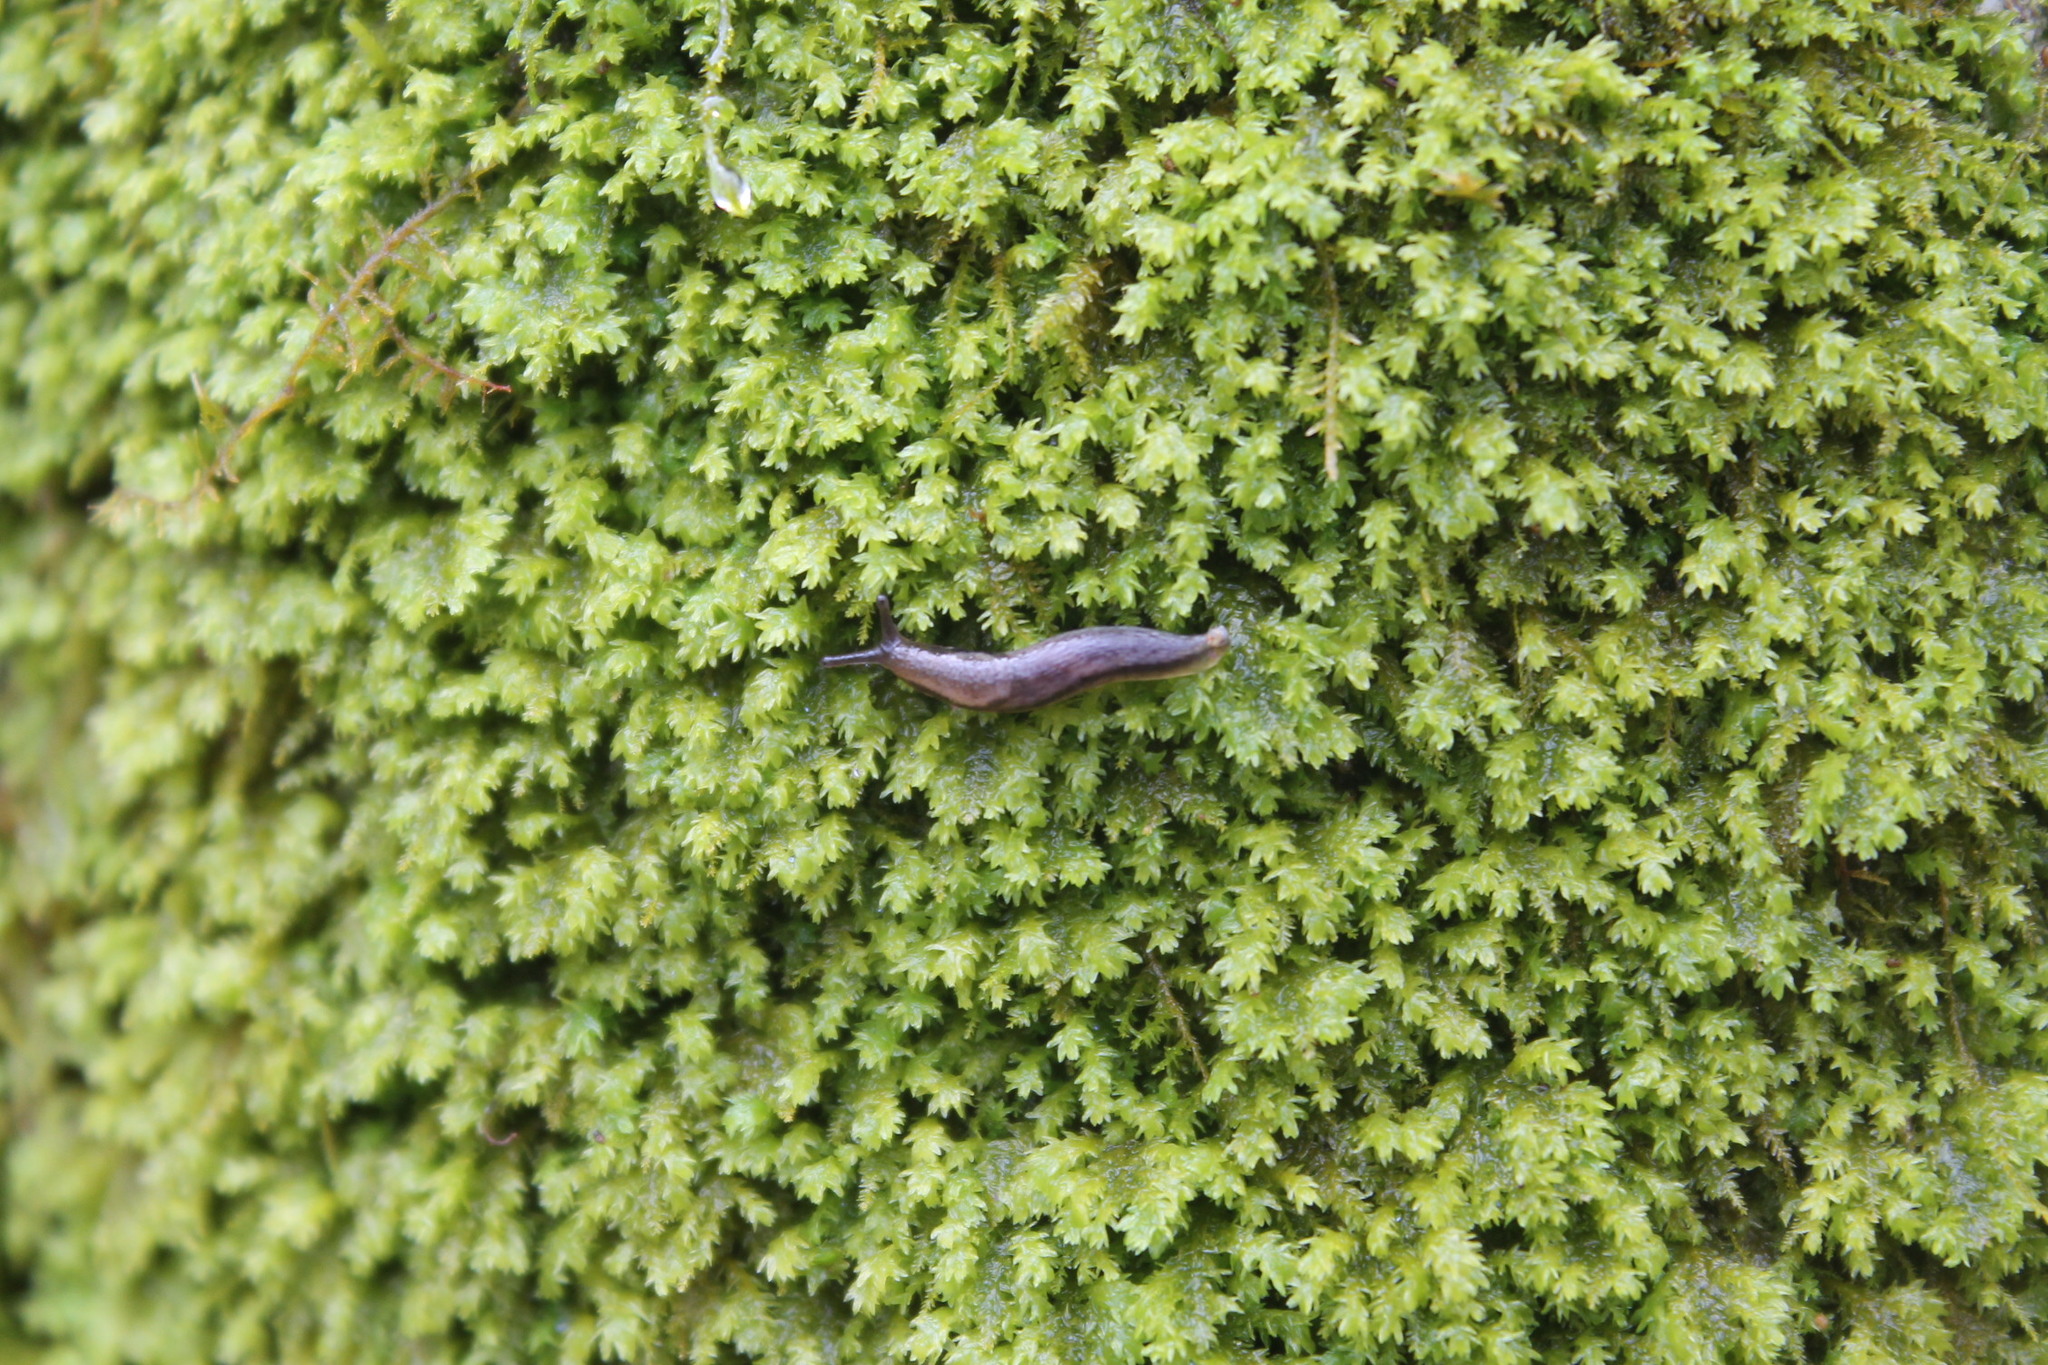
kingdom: Animalia
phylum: Mollusca
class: Gastropoda
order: Stylommatophora
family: Arionidae
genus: Kobeltia
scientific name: Kobeltia
